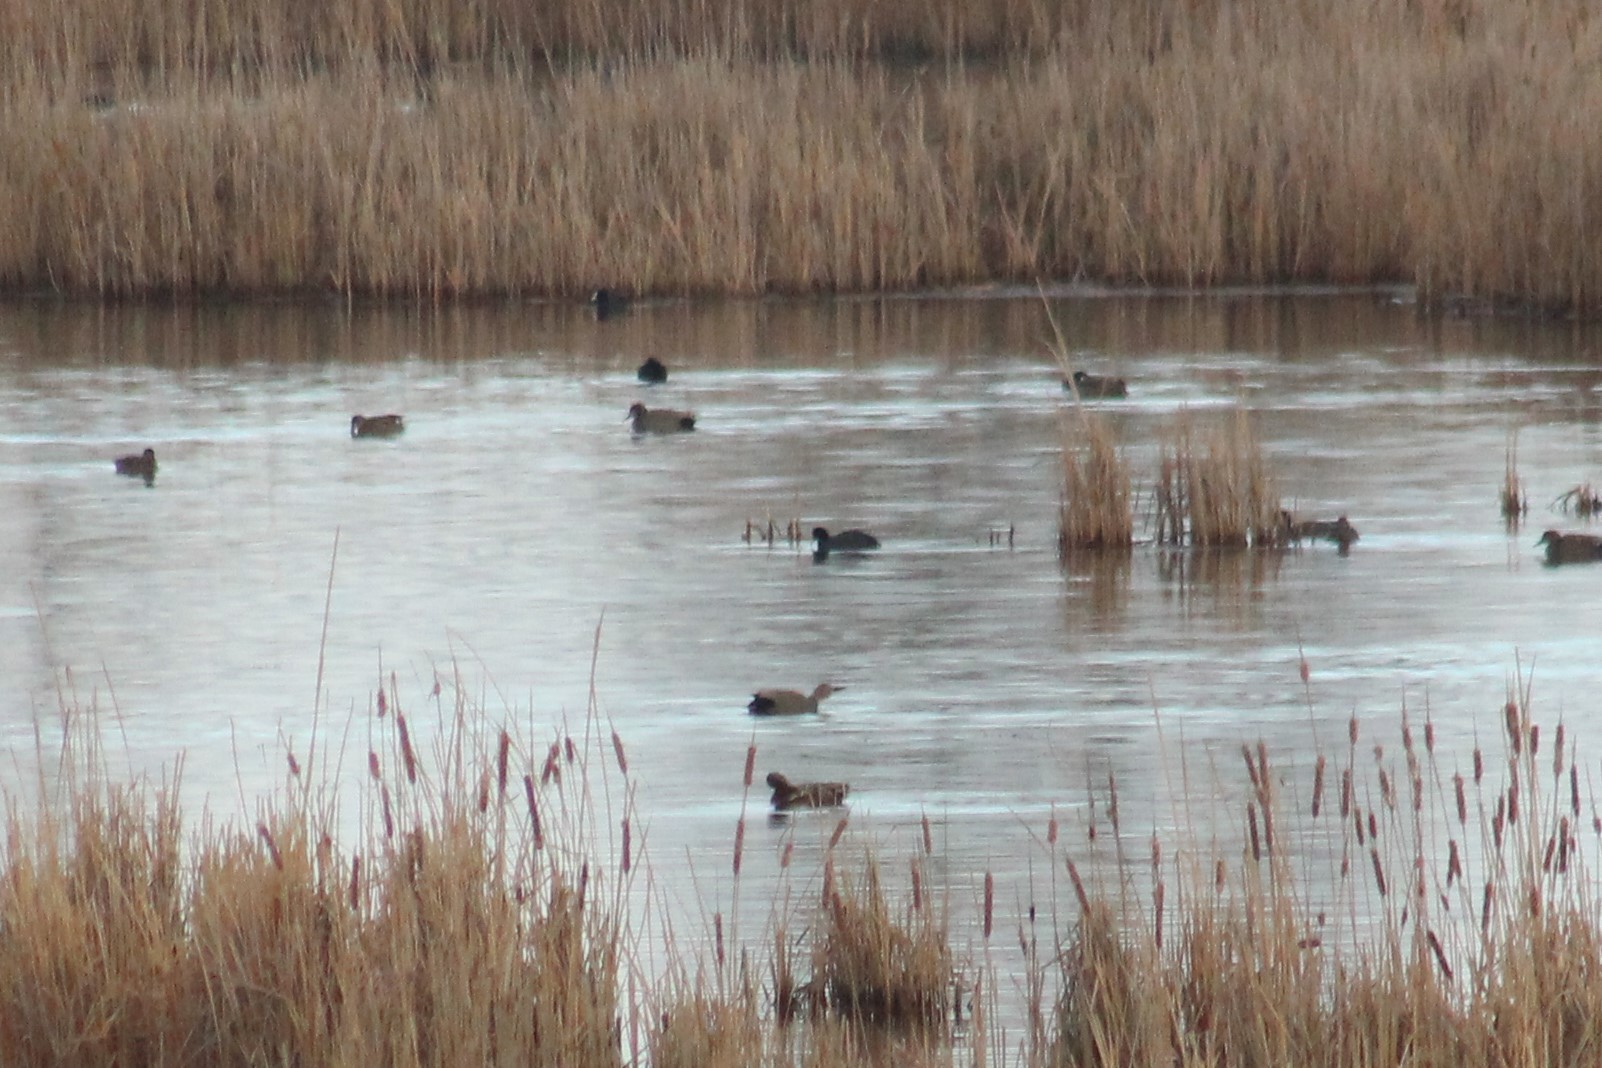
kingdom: Animalia
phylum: Chordata
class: Aves
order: Gruiformes
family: Rallidae
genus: Fulica
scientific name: Fulica atra
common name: Eurasian coot
